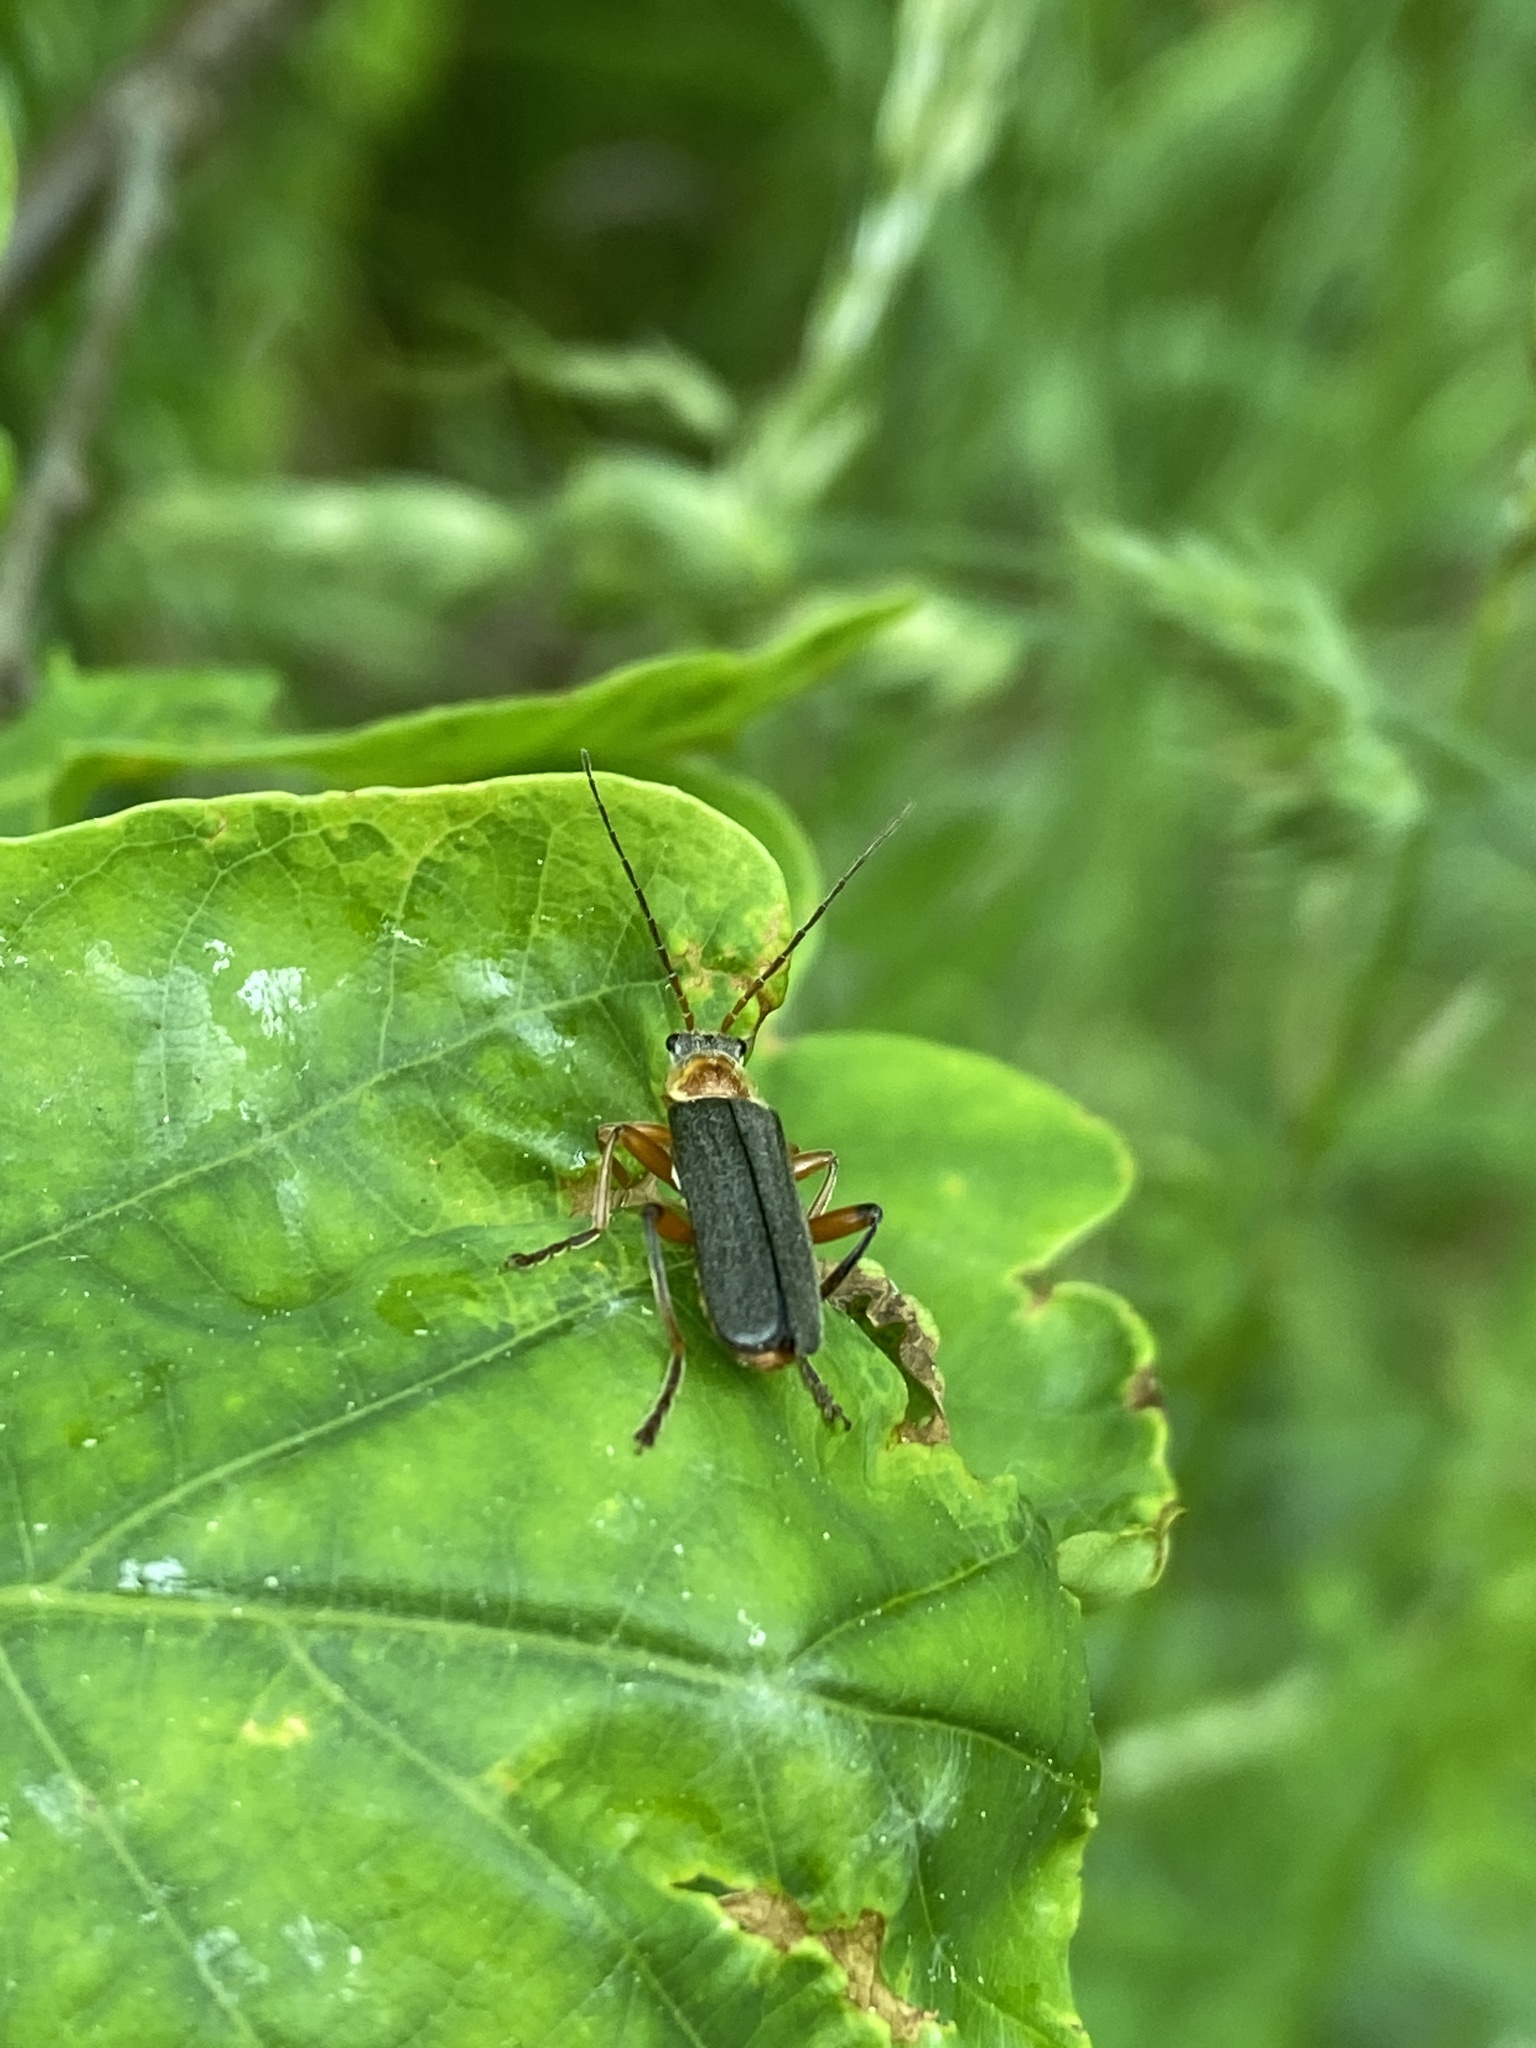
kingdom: Animalia
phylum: Arthropoda
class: Insecta
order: Coleoptera
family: Cantharidae
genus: Cantharis
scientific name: Cantharis nigricans
